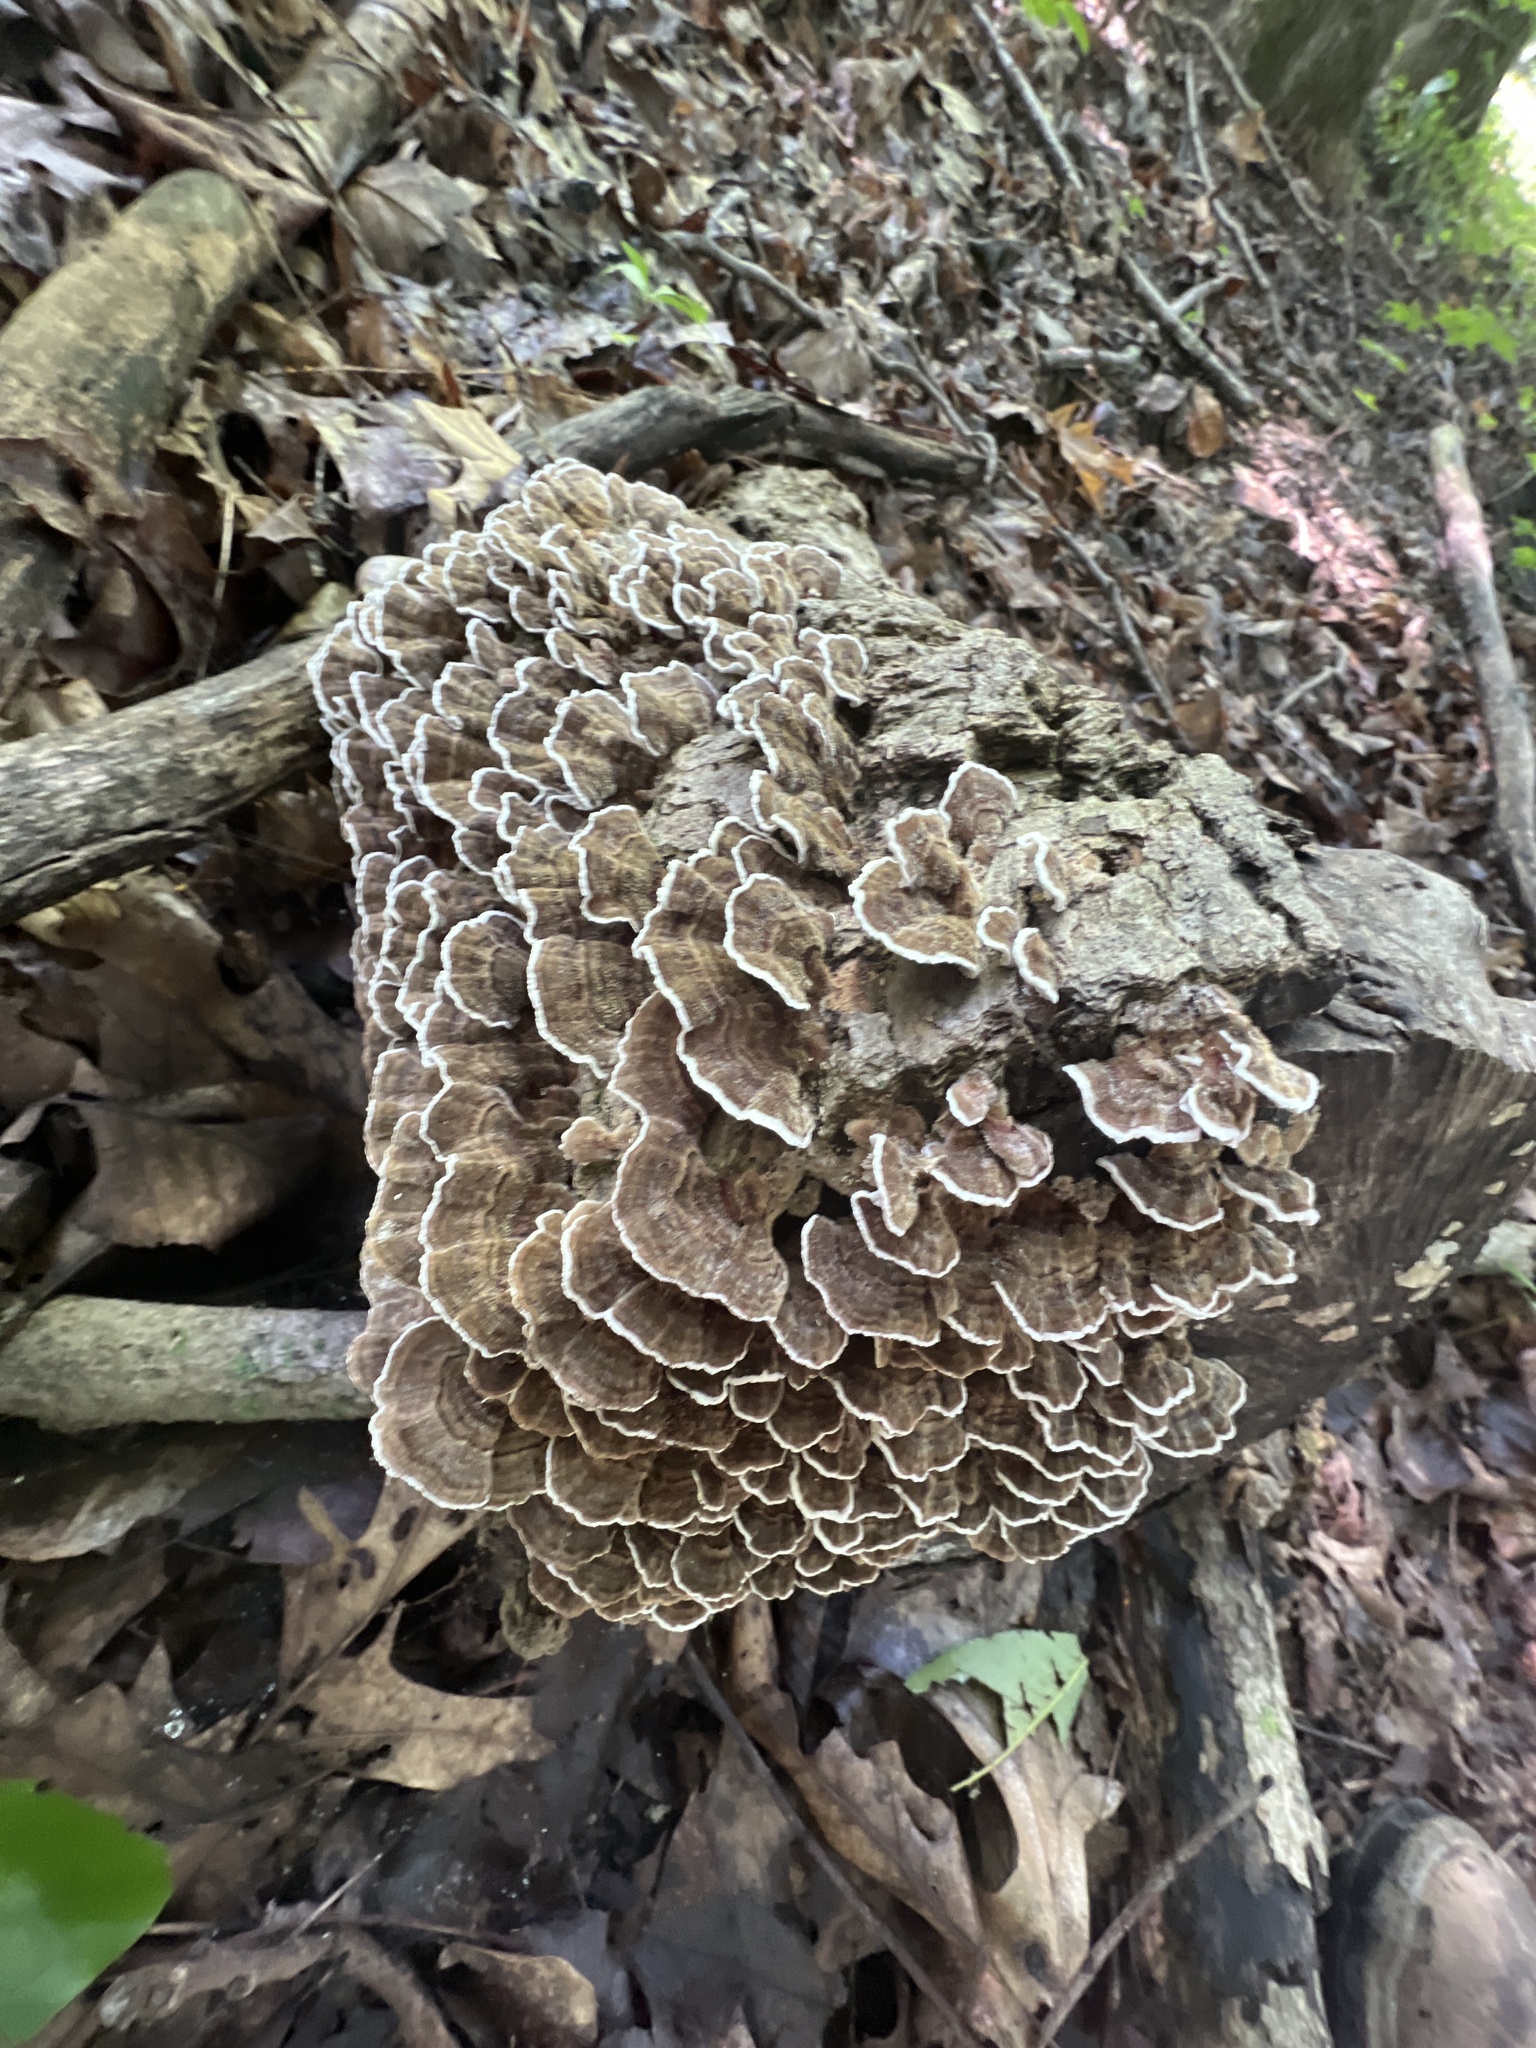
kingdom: Fungi
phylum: Basidiomycota
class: Agaricomycetes
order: Polyporales
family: Polyporaceae
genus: Trametes
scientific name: Trametes versicolor
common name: Turkeytail
